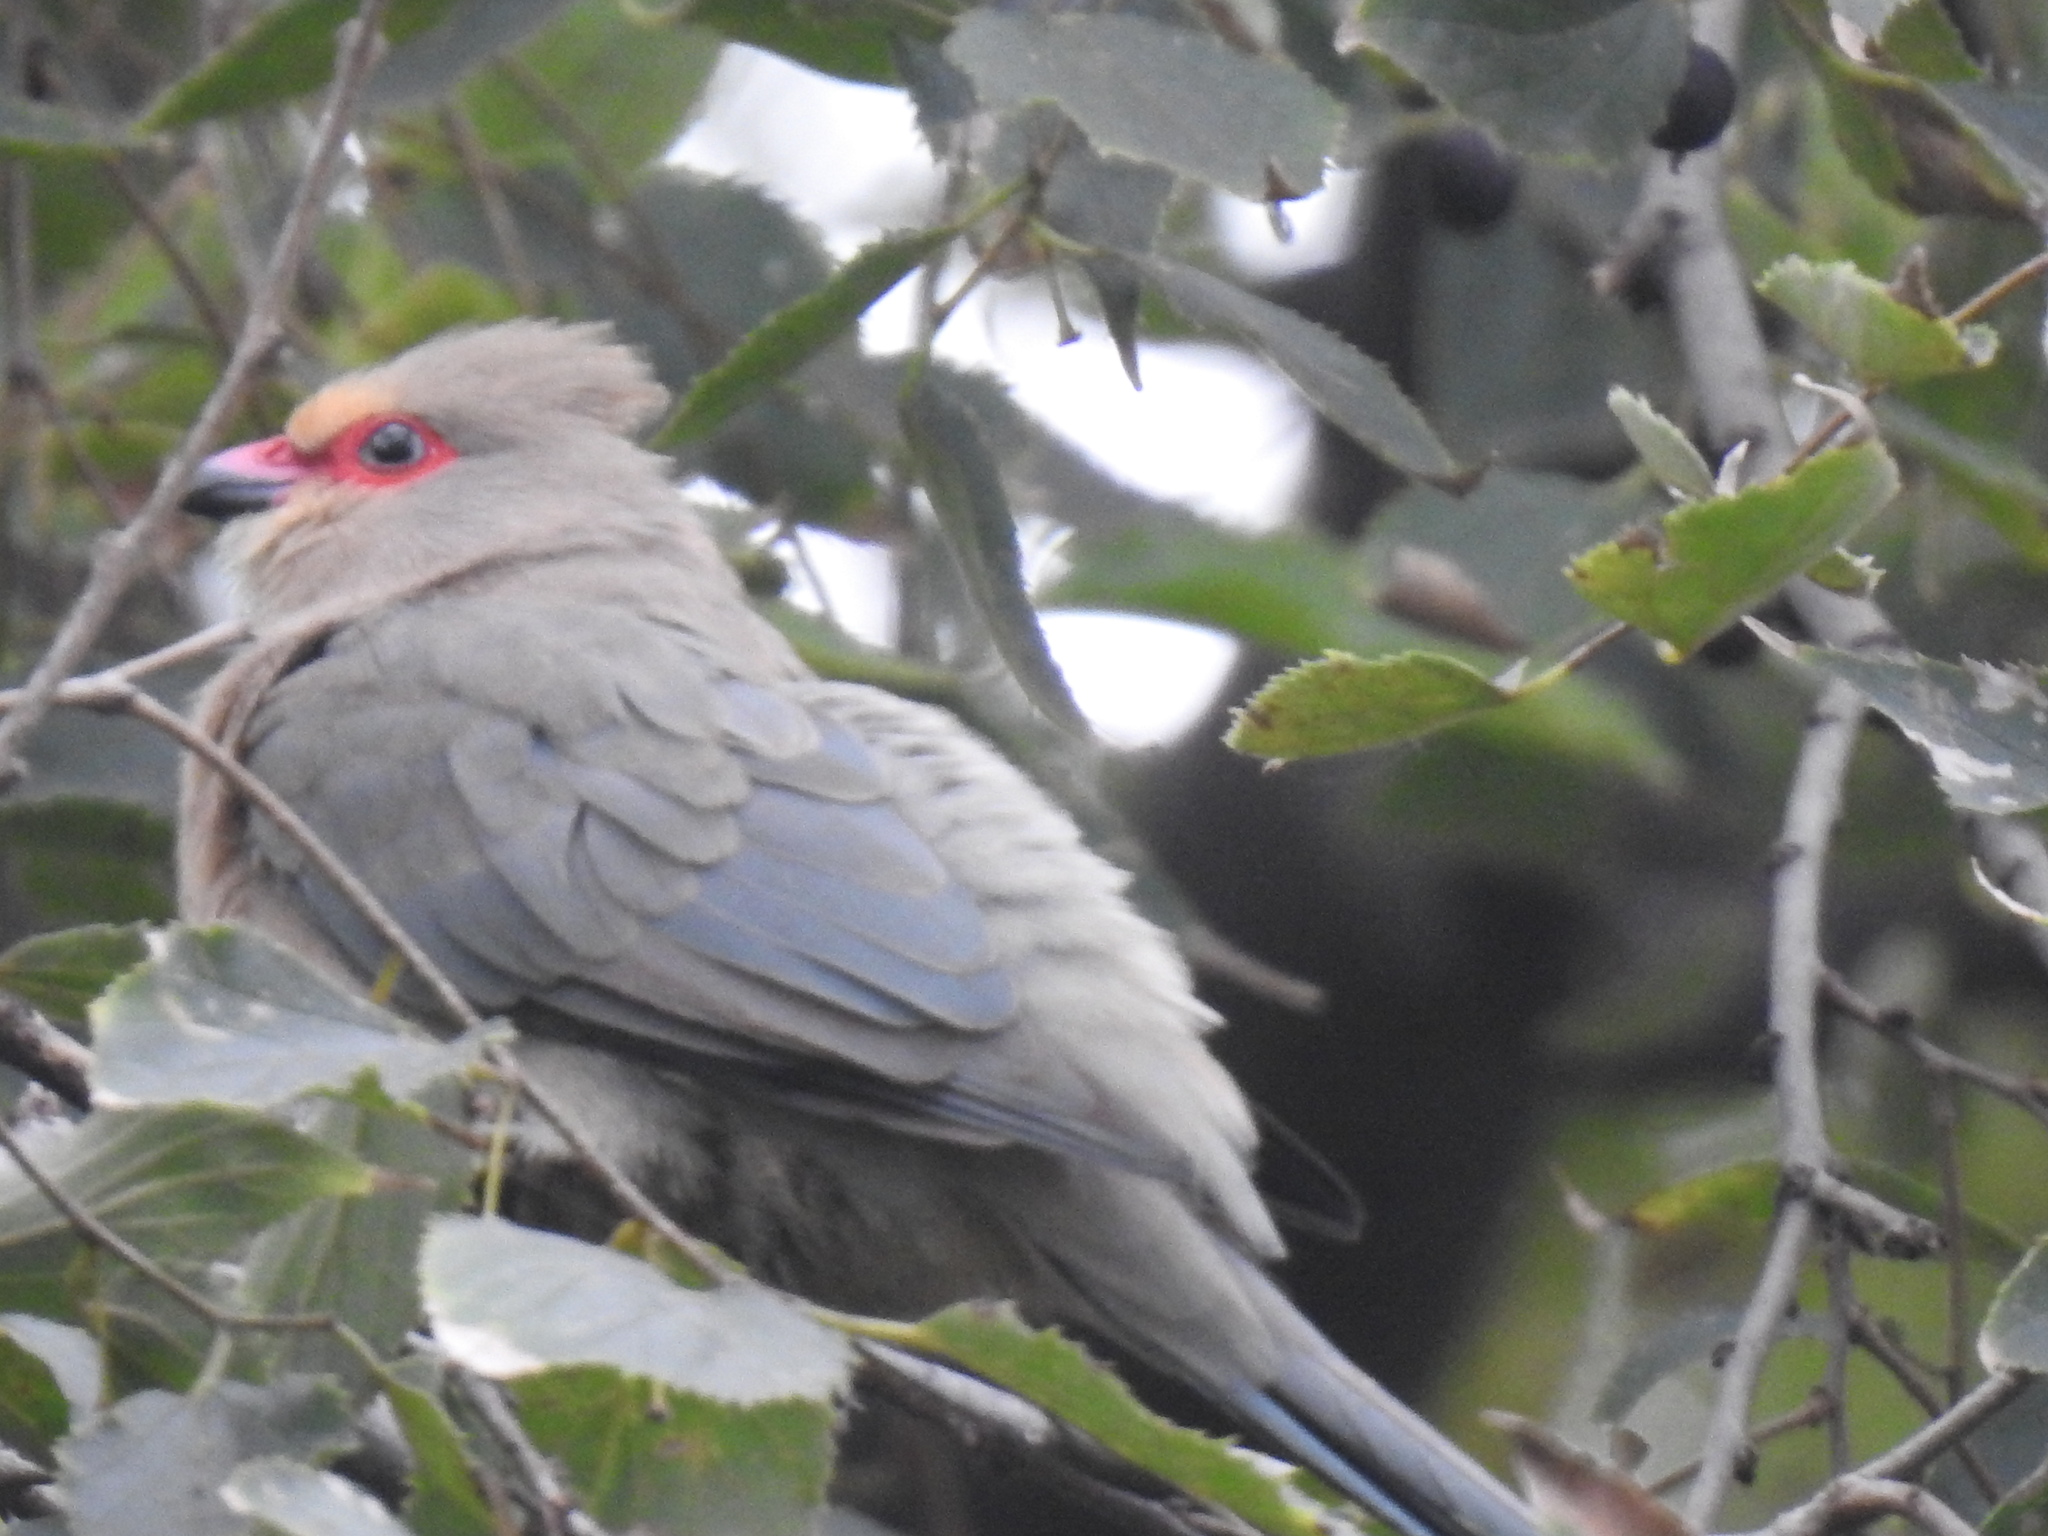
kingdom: Animalia
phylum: Chordata
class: Aves
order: Coliiformes
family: Coliidae
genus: Urocolius
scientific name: Urocolius indicus
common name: Red-faced mousebird
